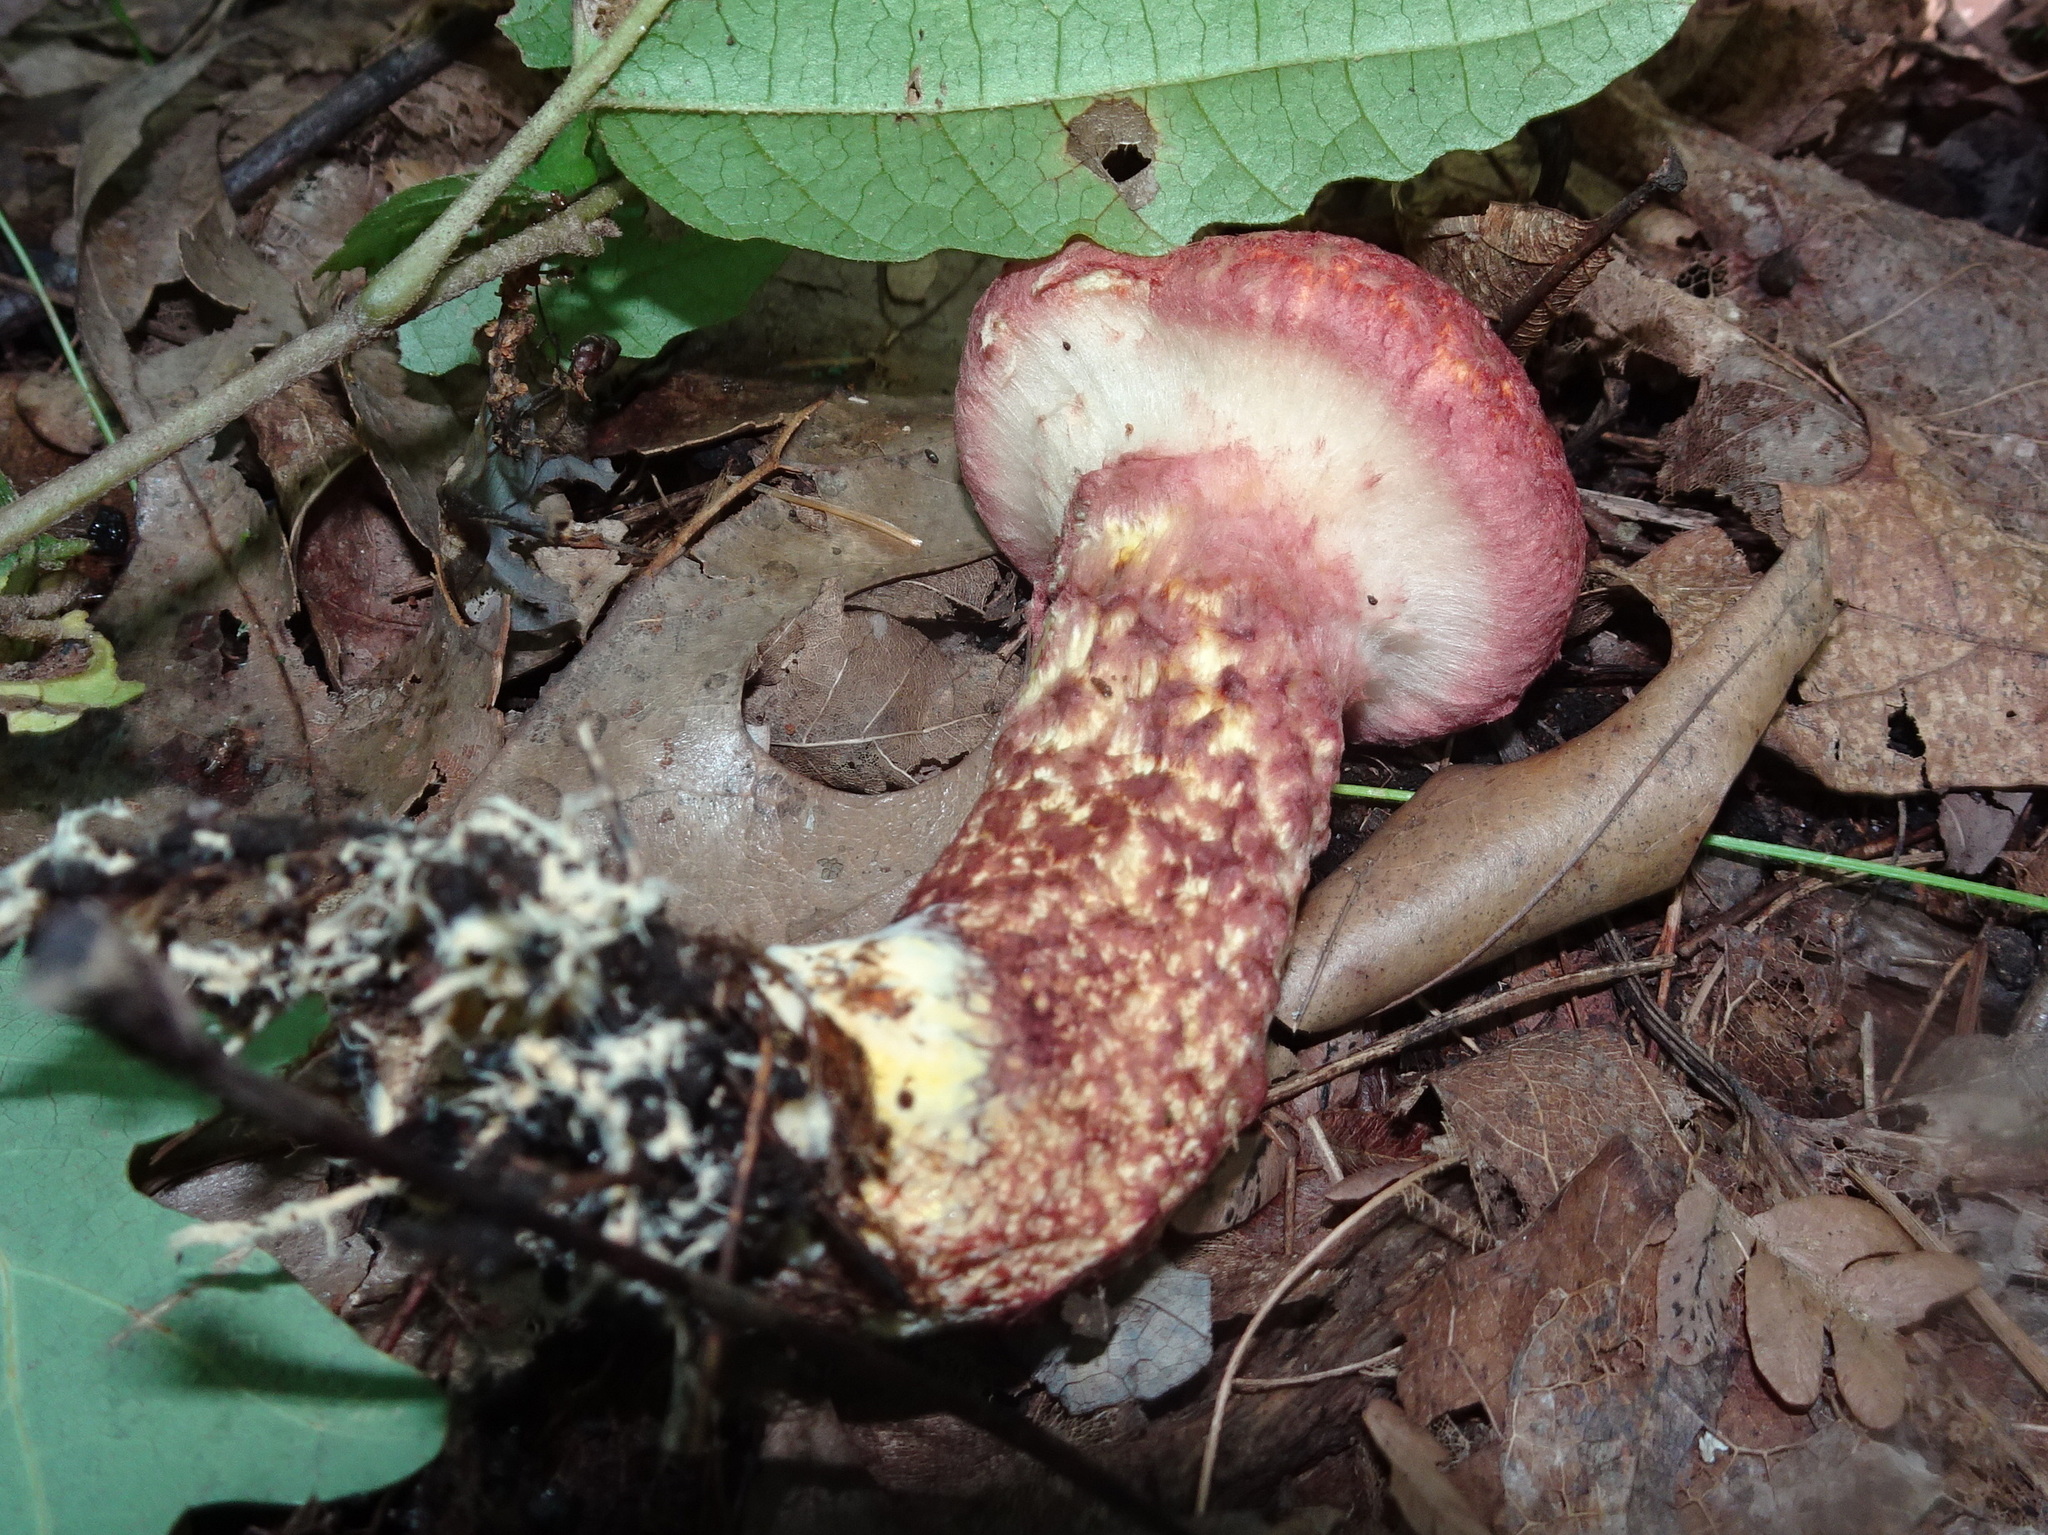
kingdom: Fungi
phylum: Basidiomycota
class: Agaricomycetes
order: Boletales
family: Suillaceae
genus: Suillus
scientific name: Suillus spraguei
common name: Painted suillus
